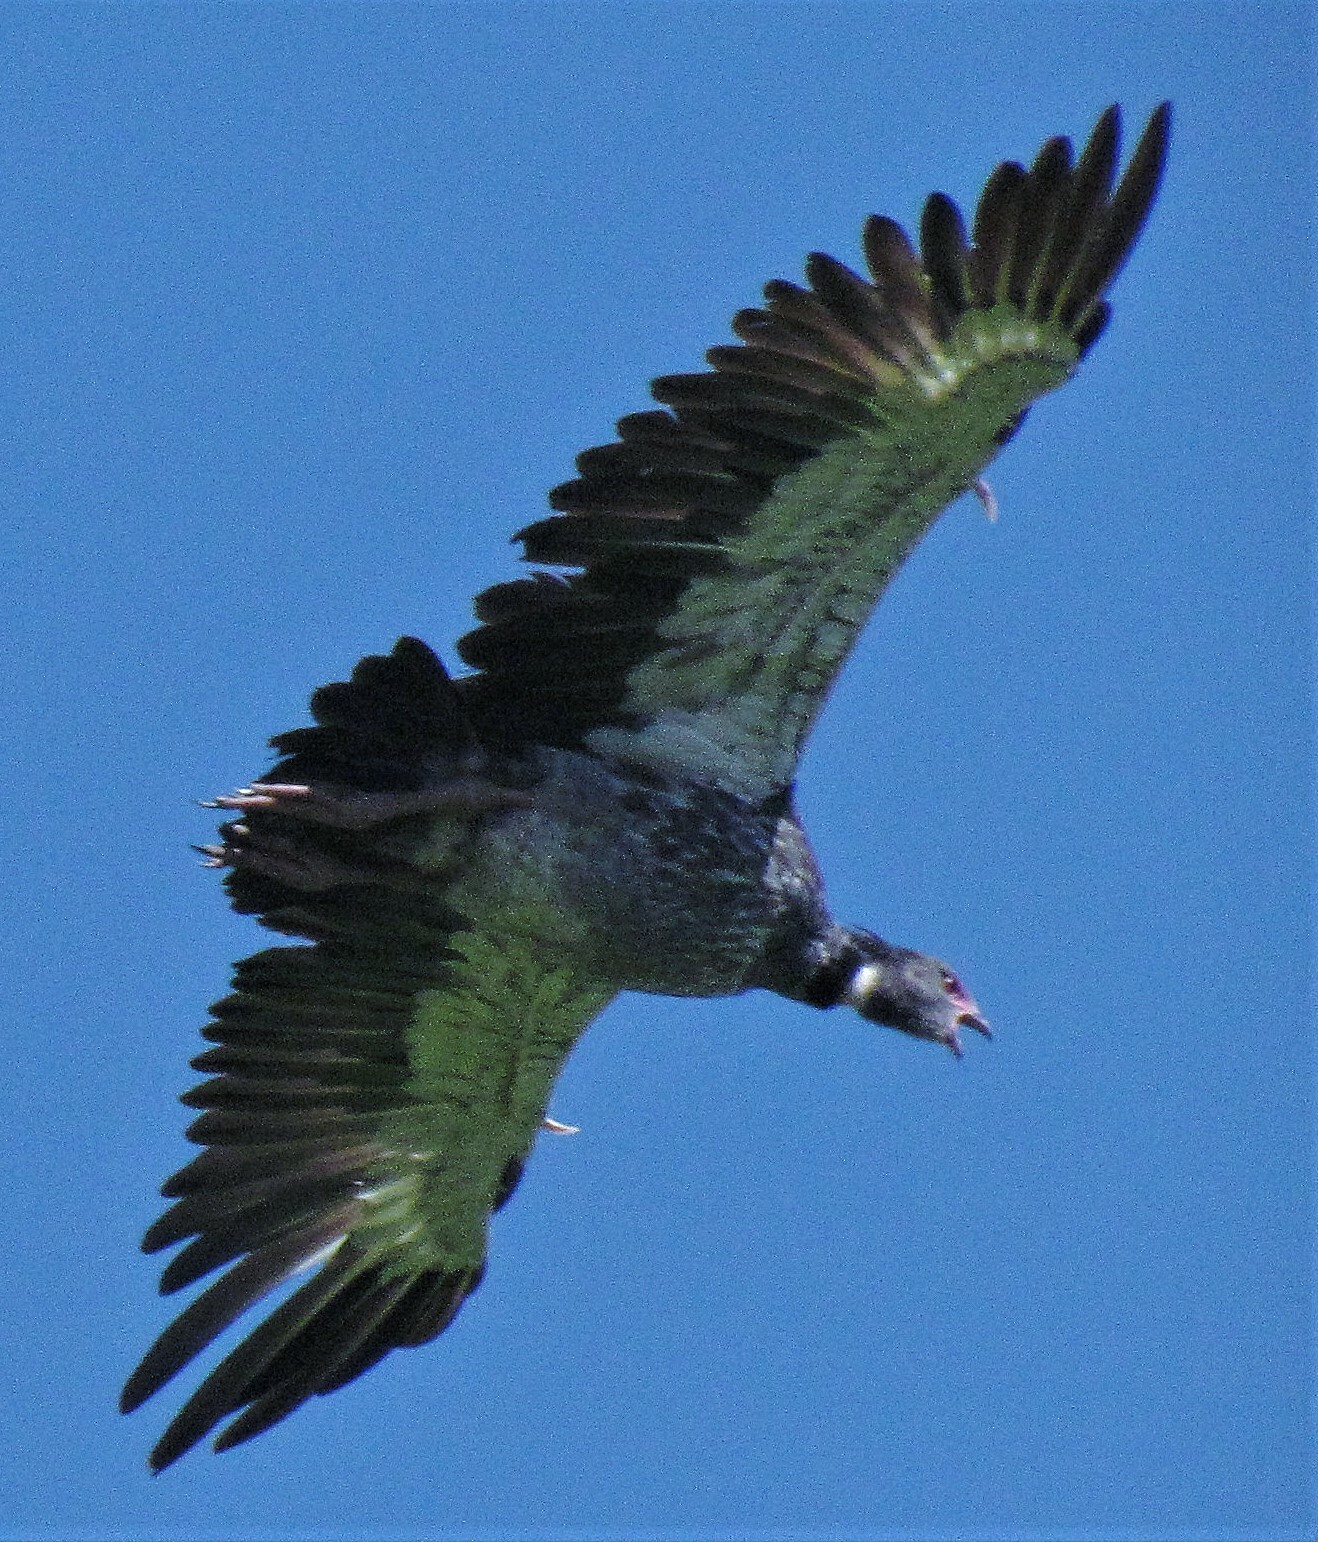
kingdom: Animalia
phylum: Chordata
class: Aves
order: Anseriformes
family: Anhimidae
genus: Chauna
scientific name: Chauna torquata
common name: Southern screamer
